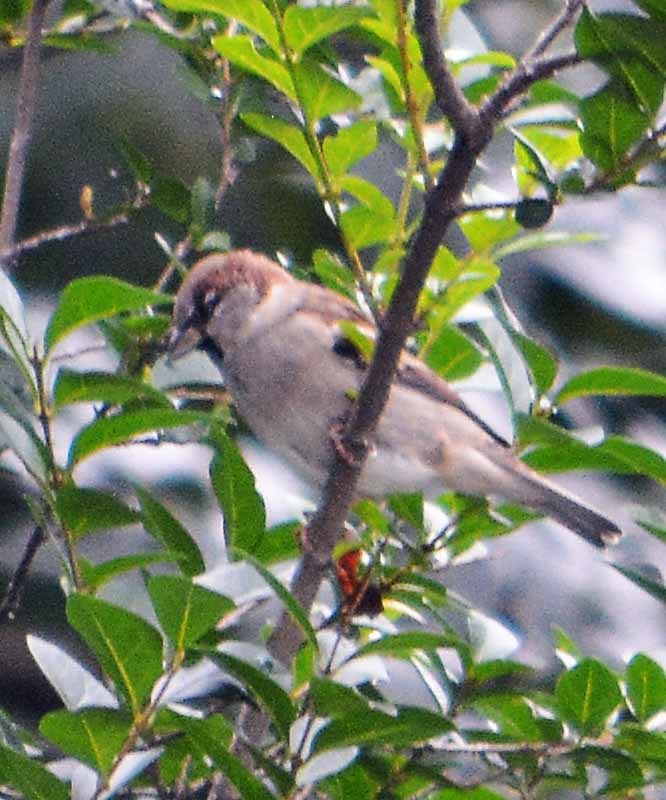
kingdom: Animalia
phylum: Chordata
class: Aves
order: Passeriformes
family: Passeridae
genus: Passer
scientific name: Passer domesticus
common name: House sparrow
